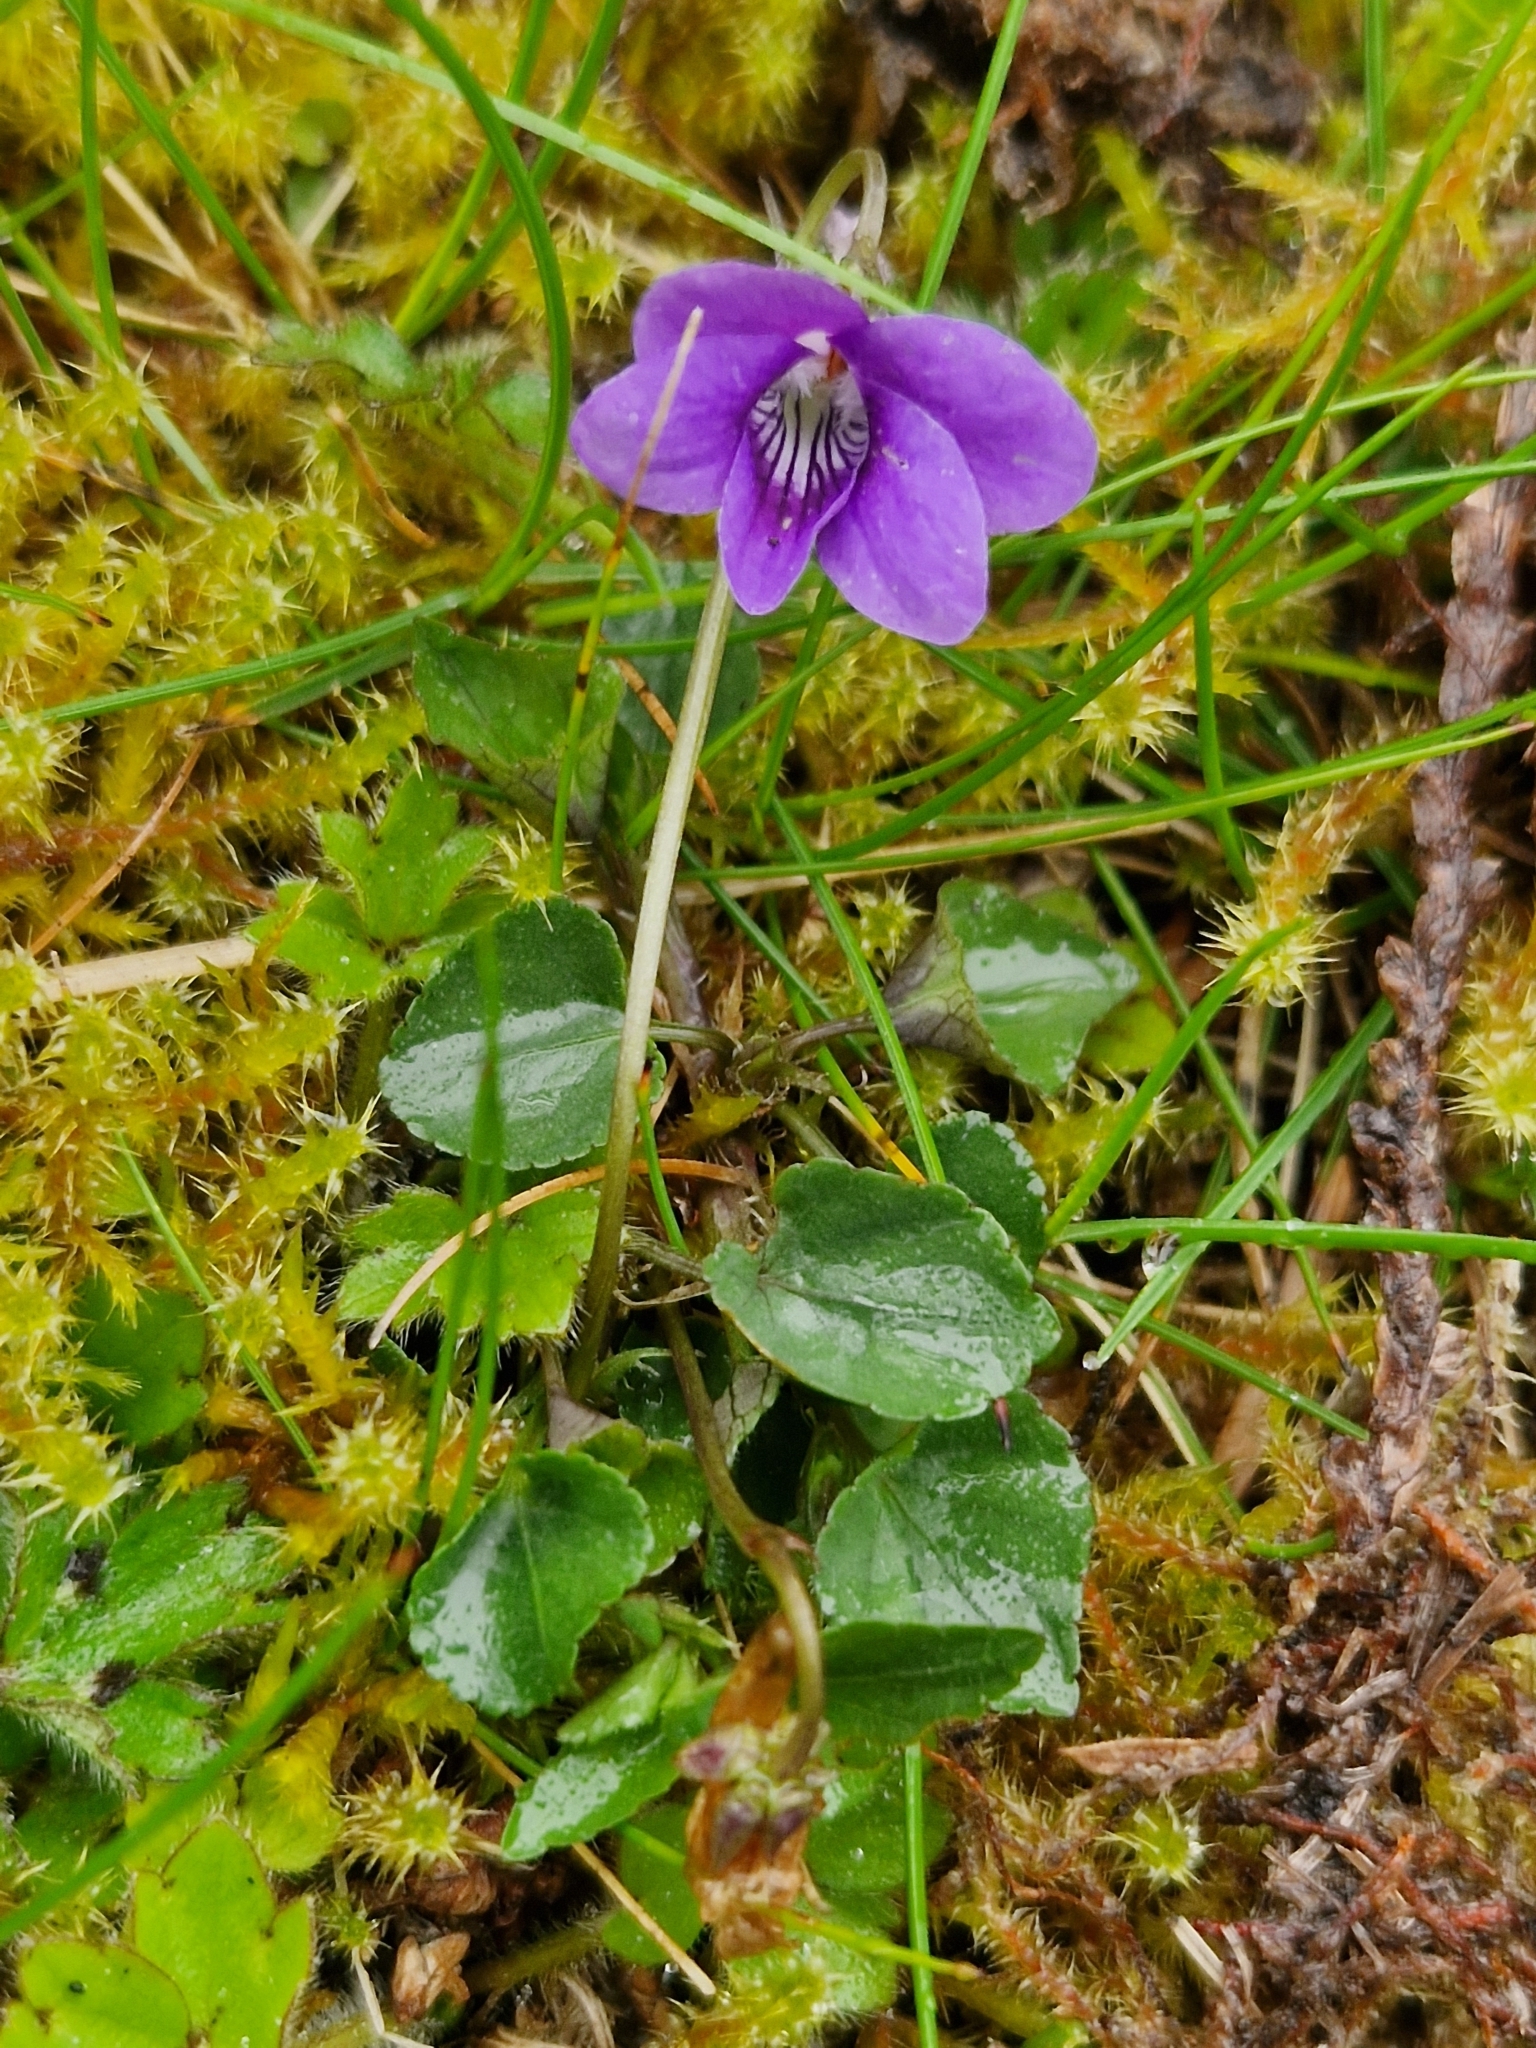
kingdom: Plantae
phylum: Tracheophyta
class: Magnoliopsida
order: Malpighiales
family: Violaceae
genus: Viola
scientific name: Viola riviniana
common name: Common dog-violet
